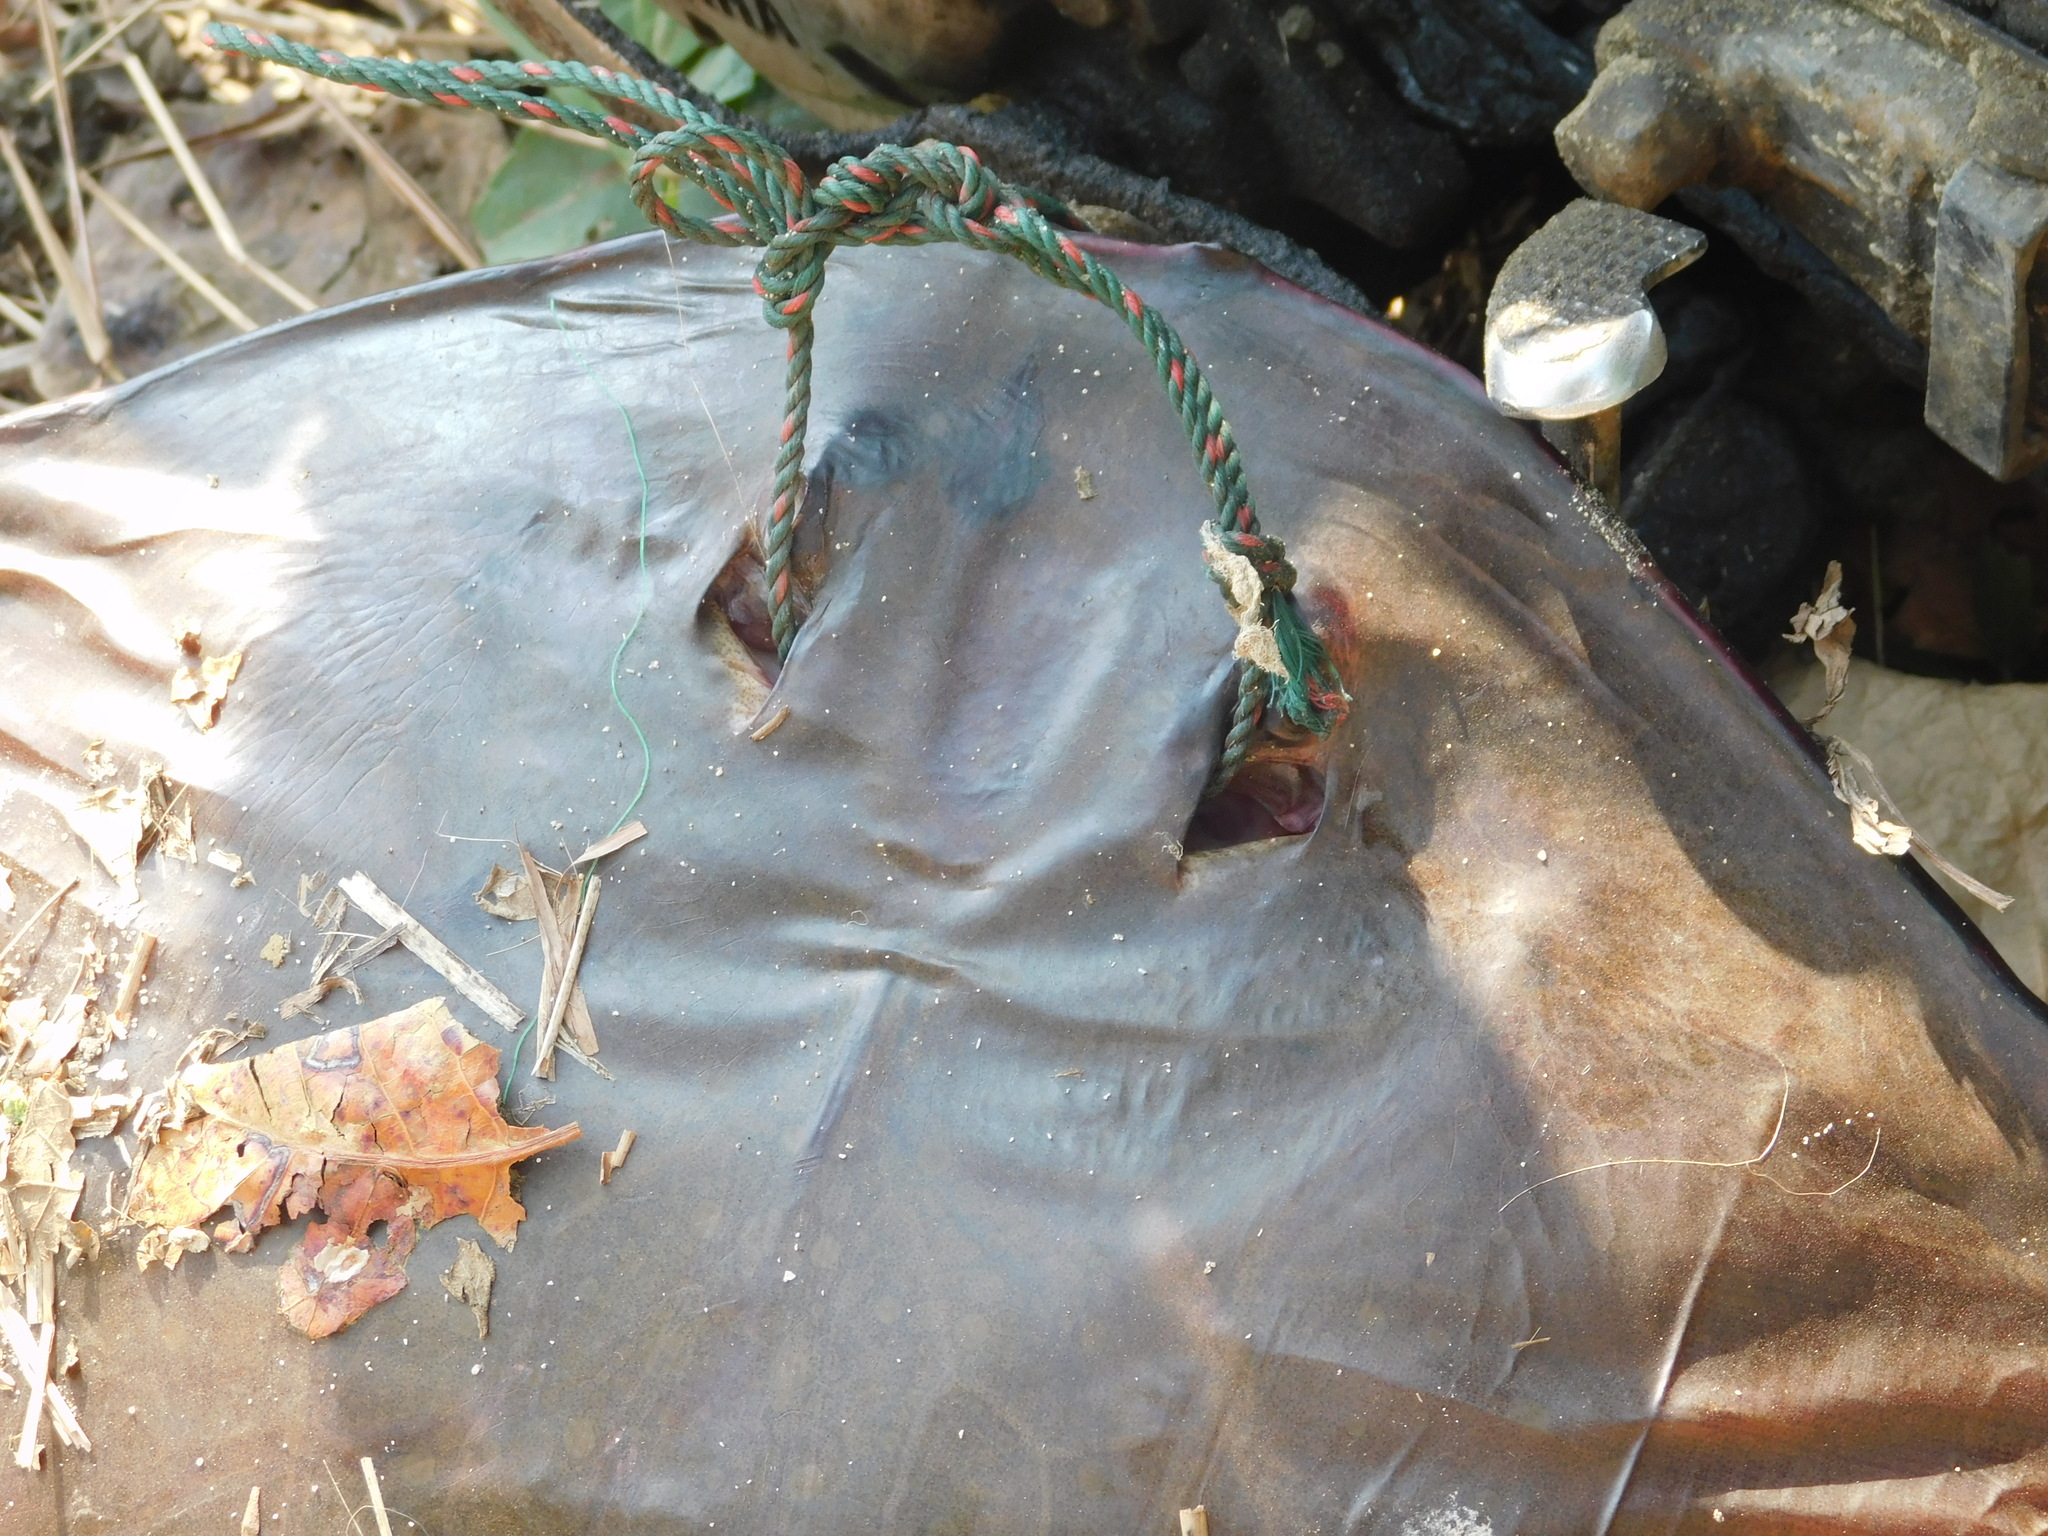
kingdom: Animalia
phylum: Chordata
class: Elasmobranchii
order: Myliobatiformes
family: Gymnuridae
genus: Gymnura
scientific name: Gymnura
